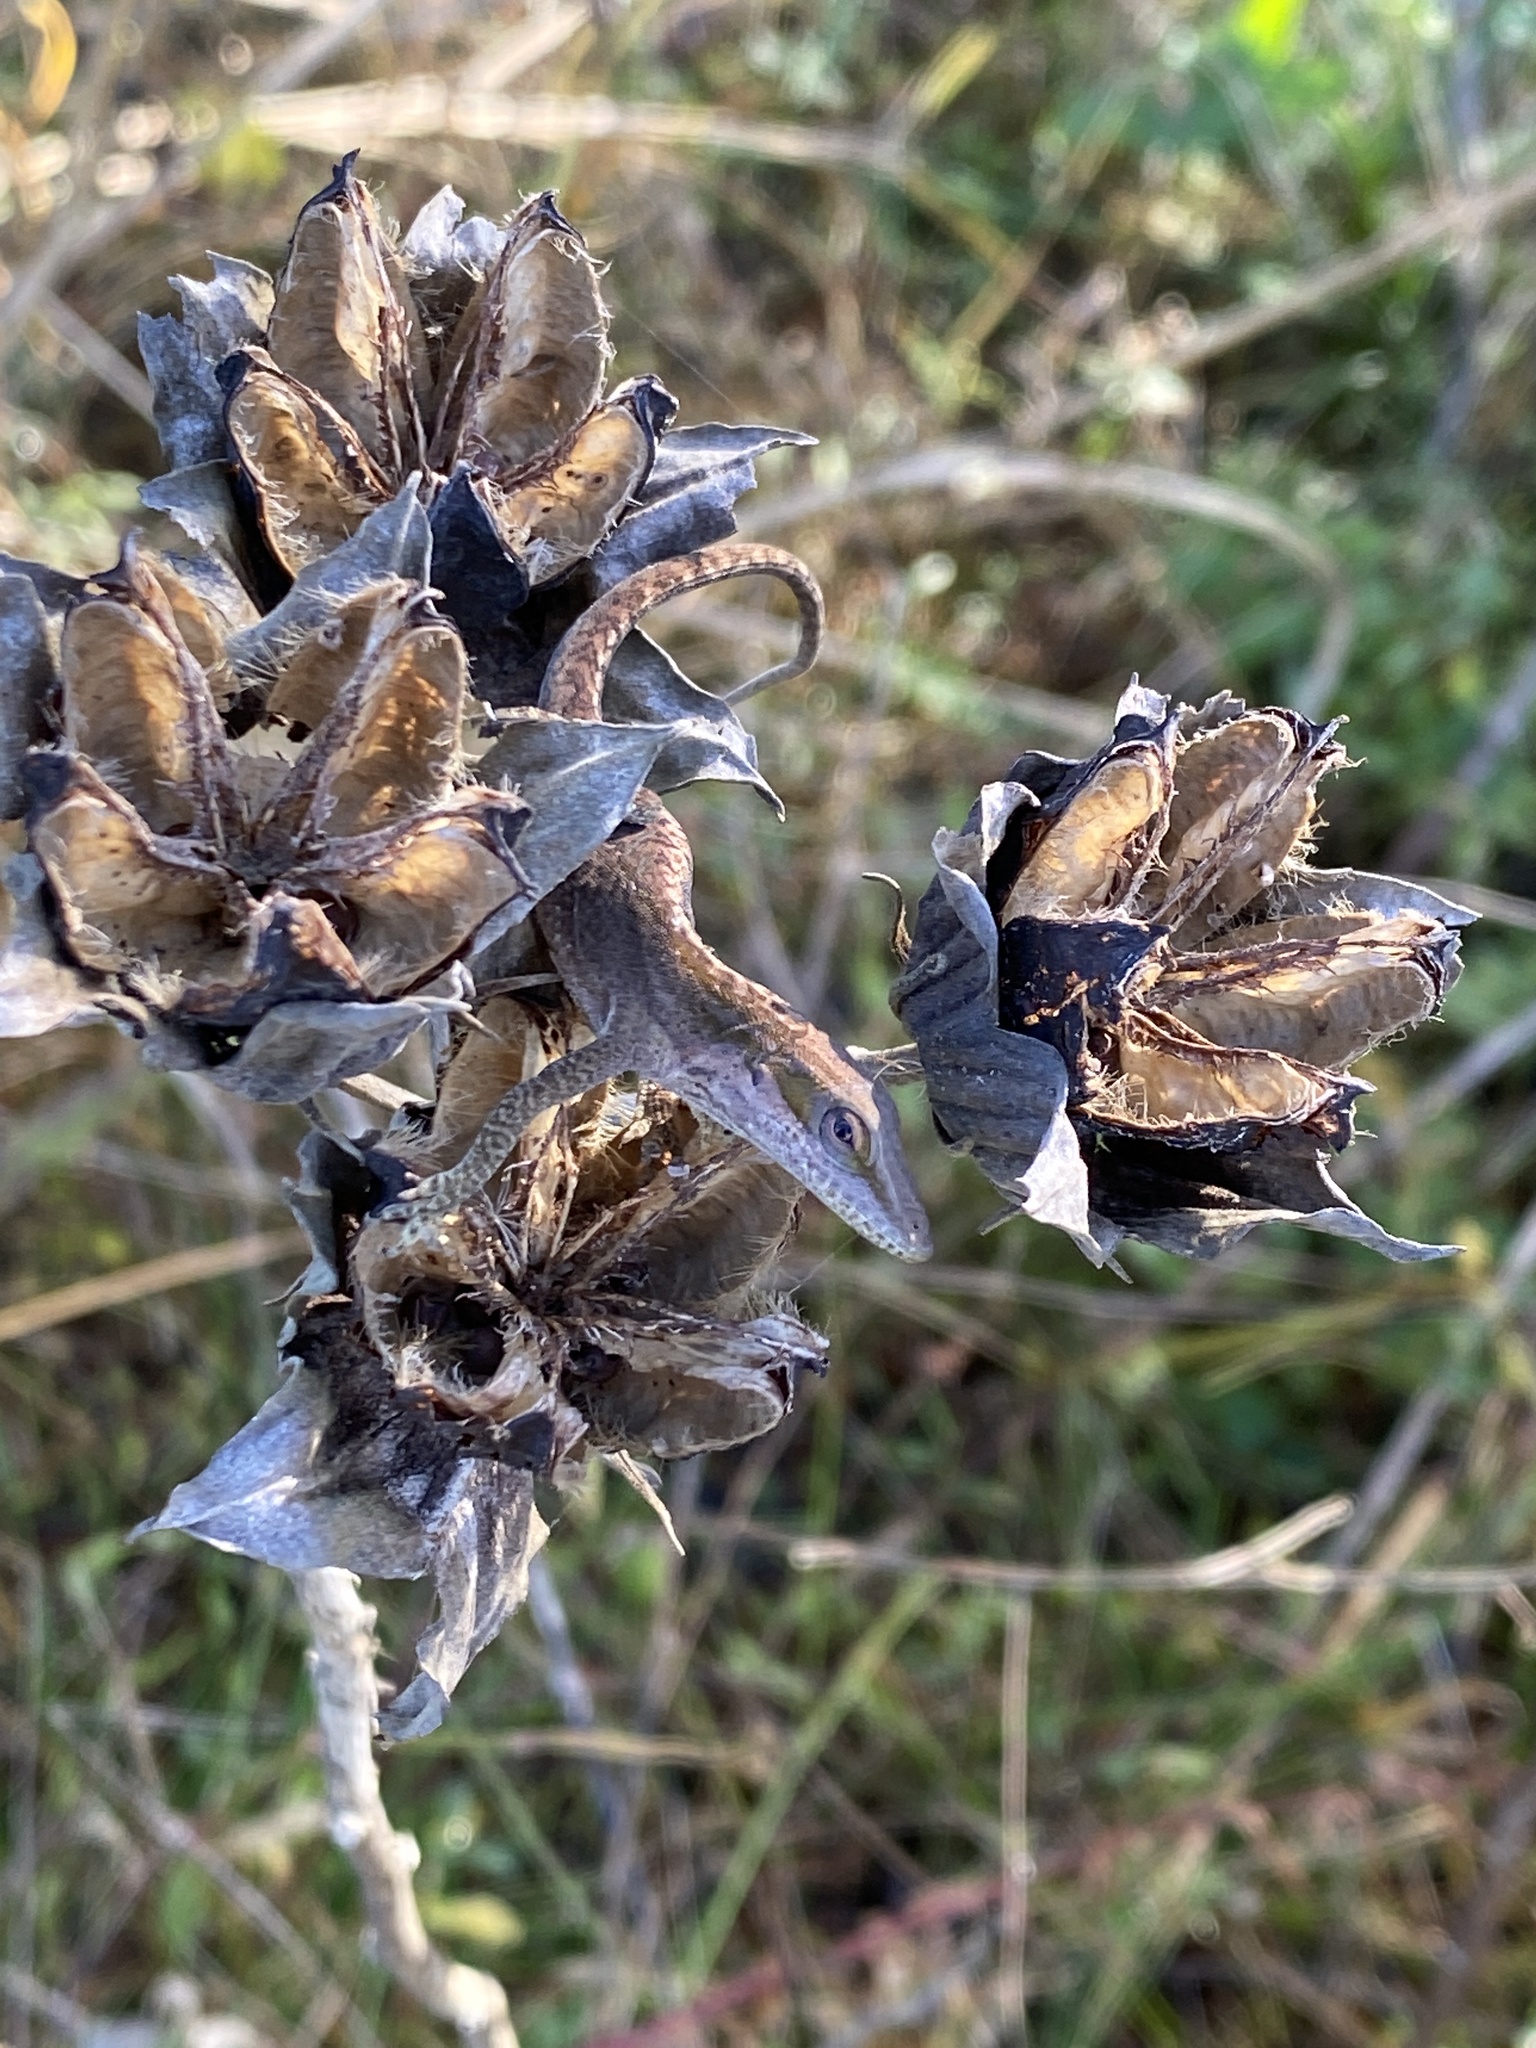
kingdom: Animalia
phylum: Chordata
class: Squamata
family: Dactyloidae
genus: Anolis
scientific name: Anolis carolinensis
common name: Green anole
